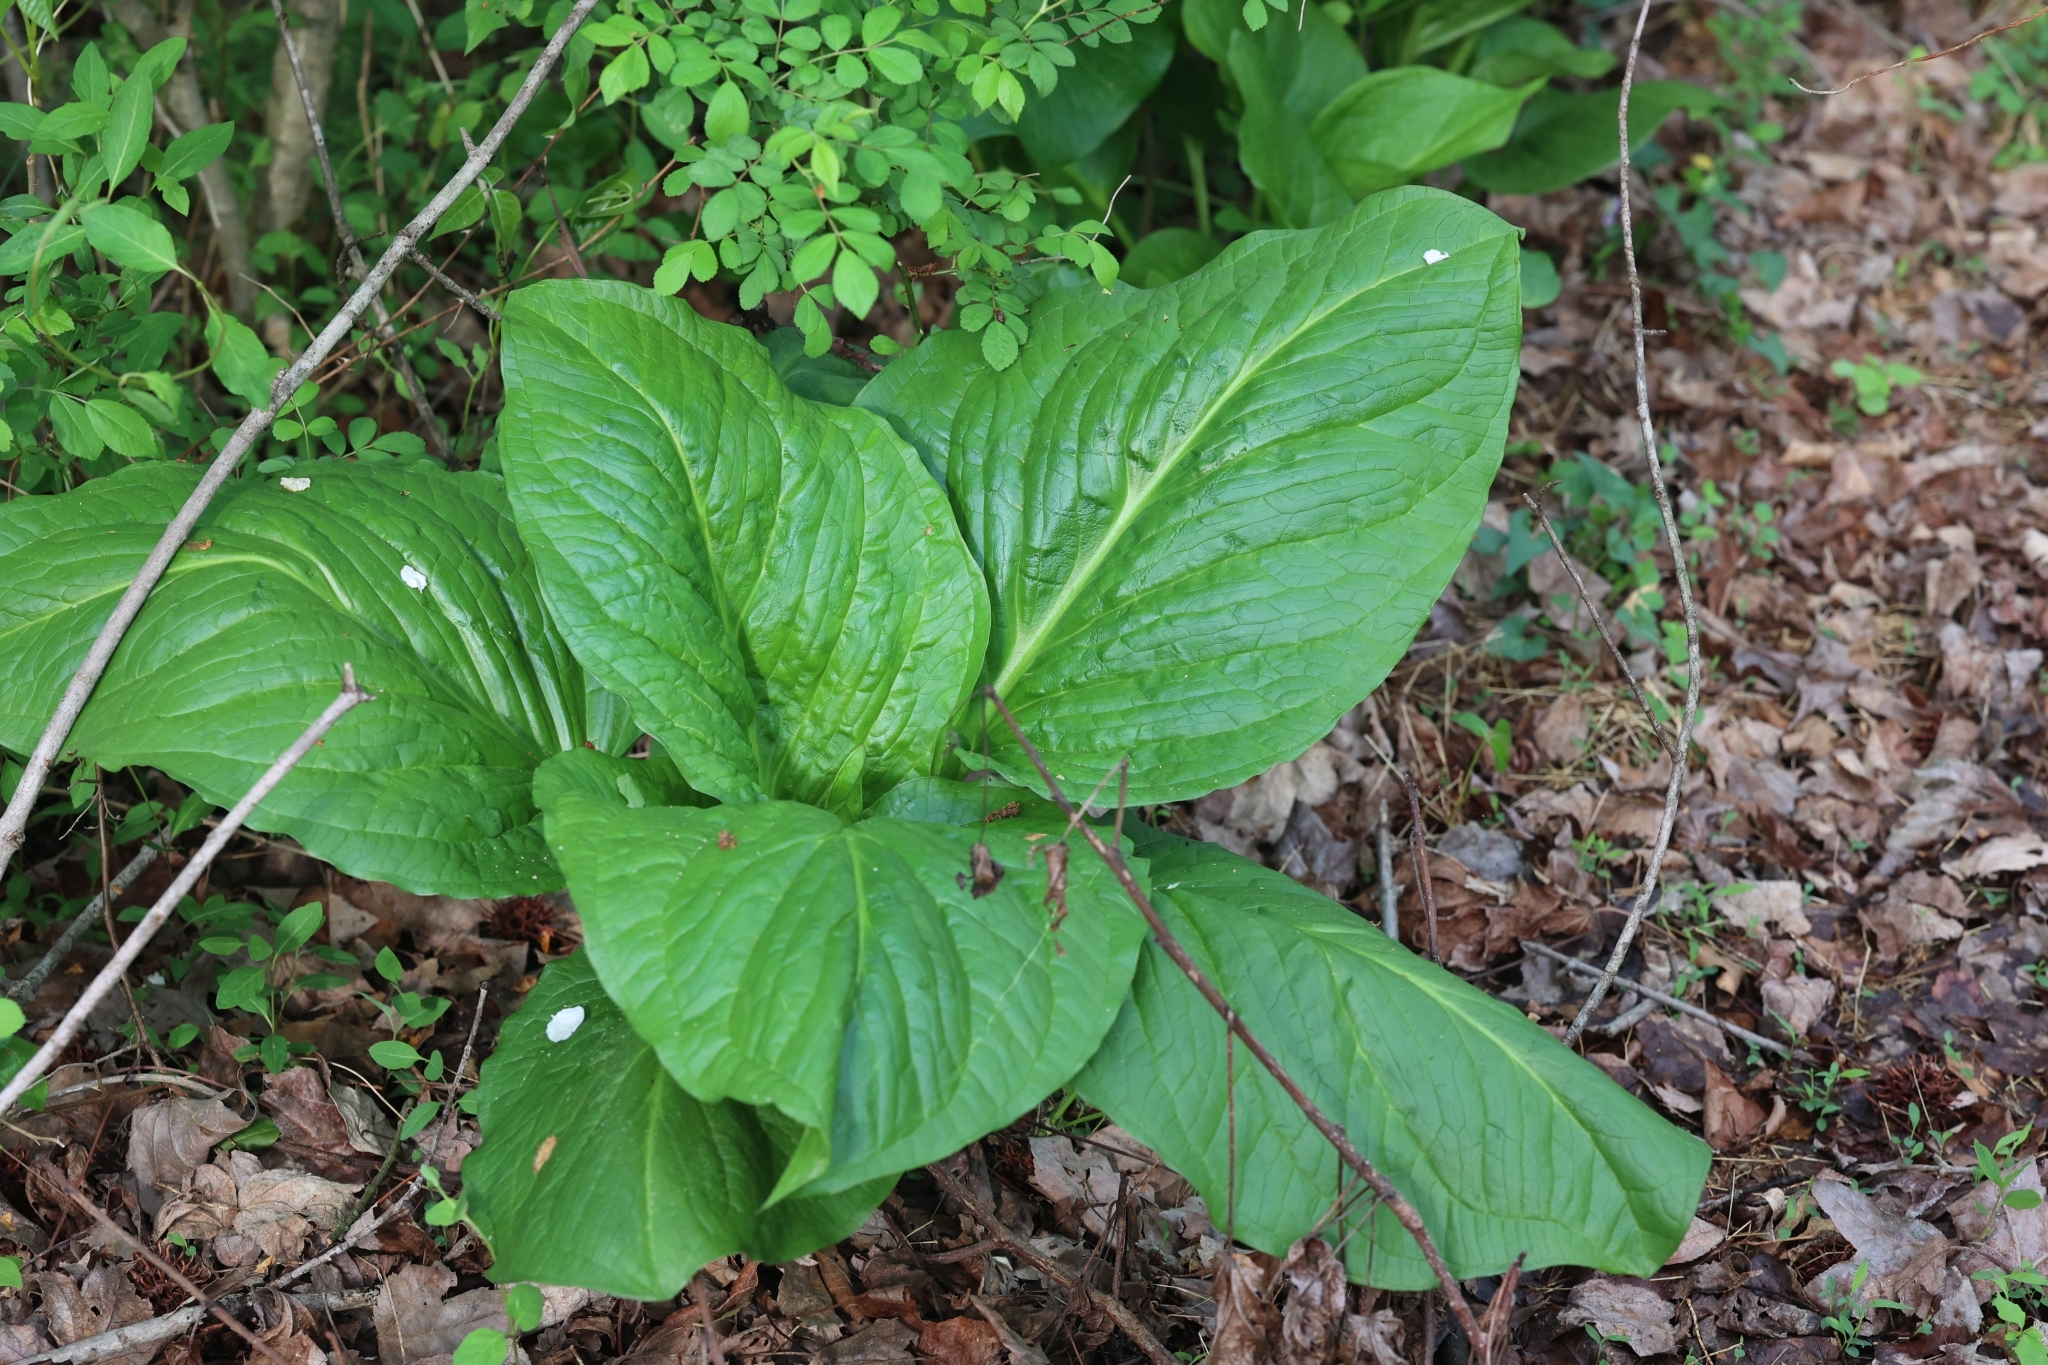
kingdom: Plantae
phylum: Tracheophyta
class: Liliopsida
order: Alismatales
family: Araceae
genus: Symplocarpus
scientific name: Symplocarpus foetidus
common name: Eastern skunk cabbage
